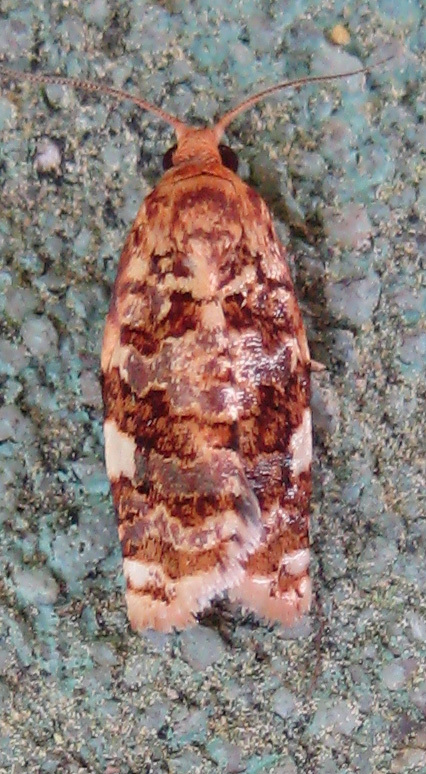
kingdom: Animalia
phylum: Arthropoda
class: Insecta
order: Lepidoptera
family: Tortricidae
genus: Archips
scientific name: Archips argyrospila
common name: Fruit-tree leafroller moth
